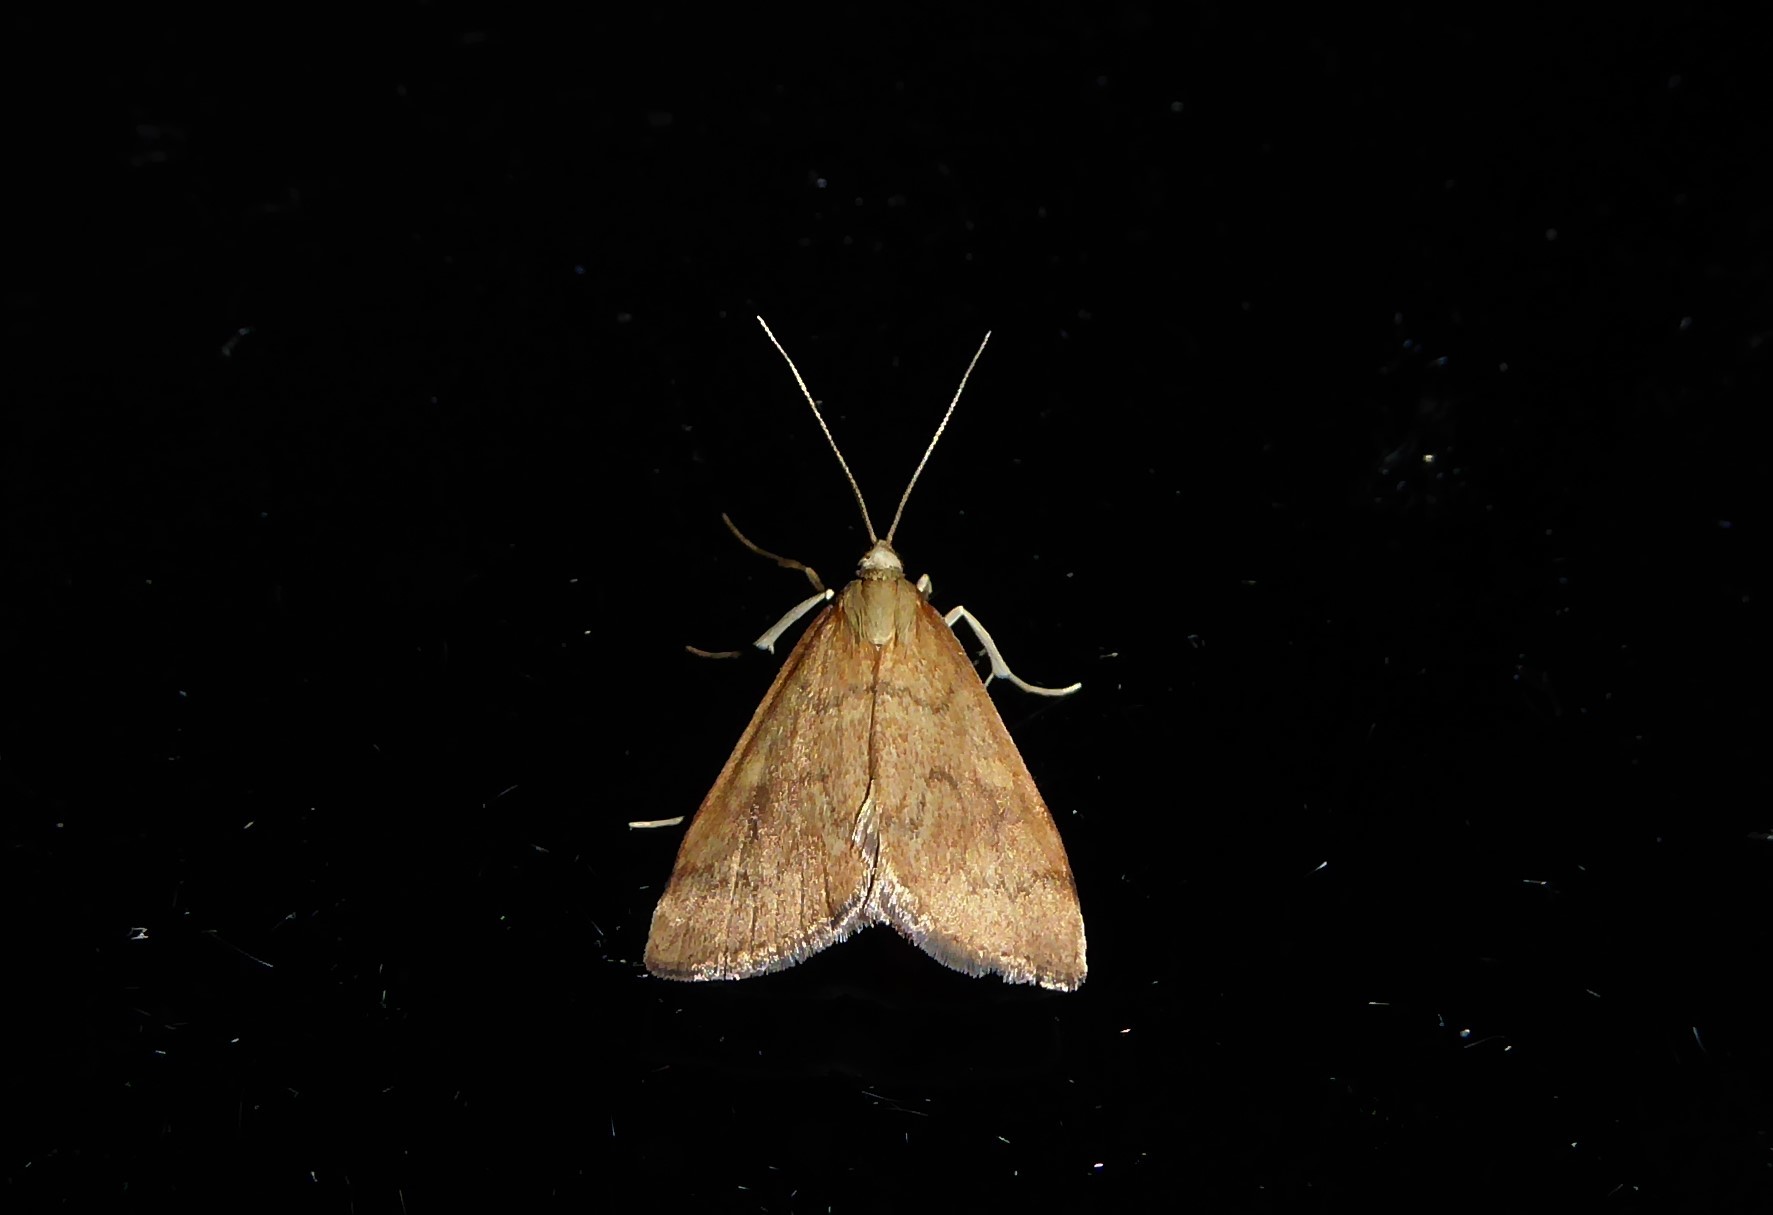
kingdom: Animalia
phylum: Arthropoda
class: Insecta
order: Lepidoptera
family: Crambidae
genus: Udea
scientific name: Udea Mnesictena flavidalis
